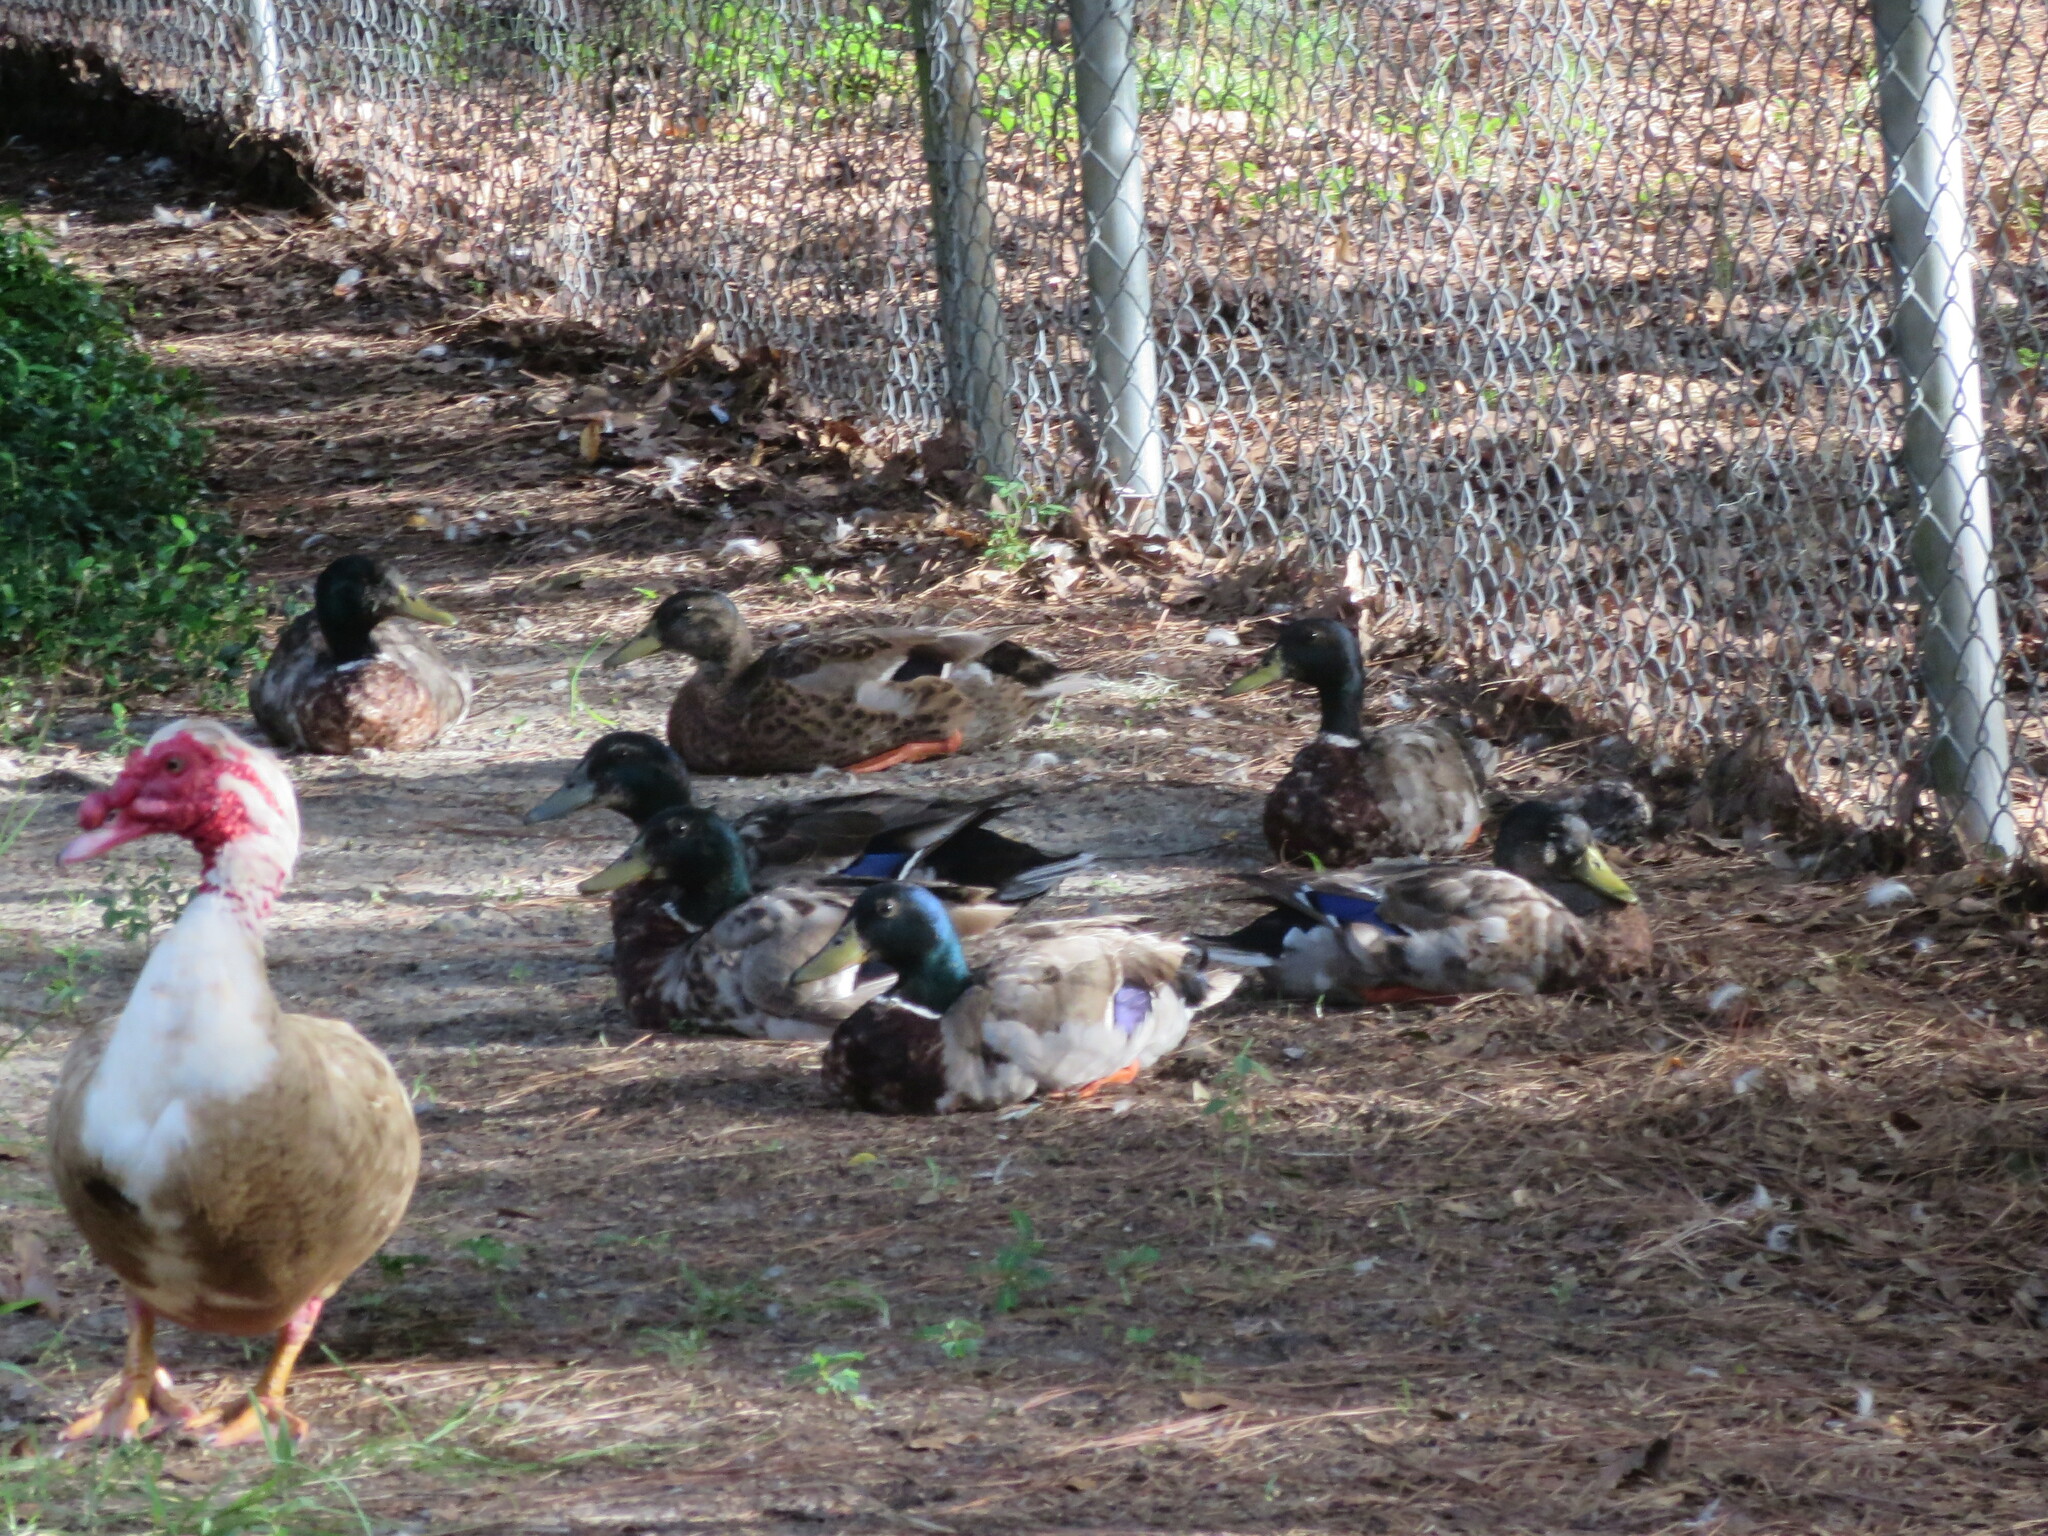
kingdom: Animalia
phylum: Chordata
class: Aves
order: Anseriformes
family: Anatidae
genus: Cairina
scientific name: Cairina moschata
